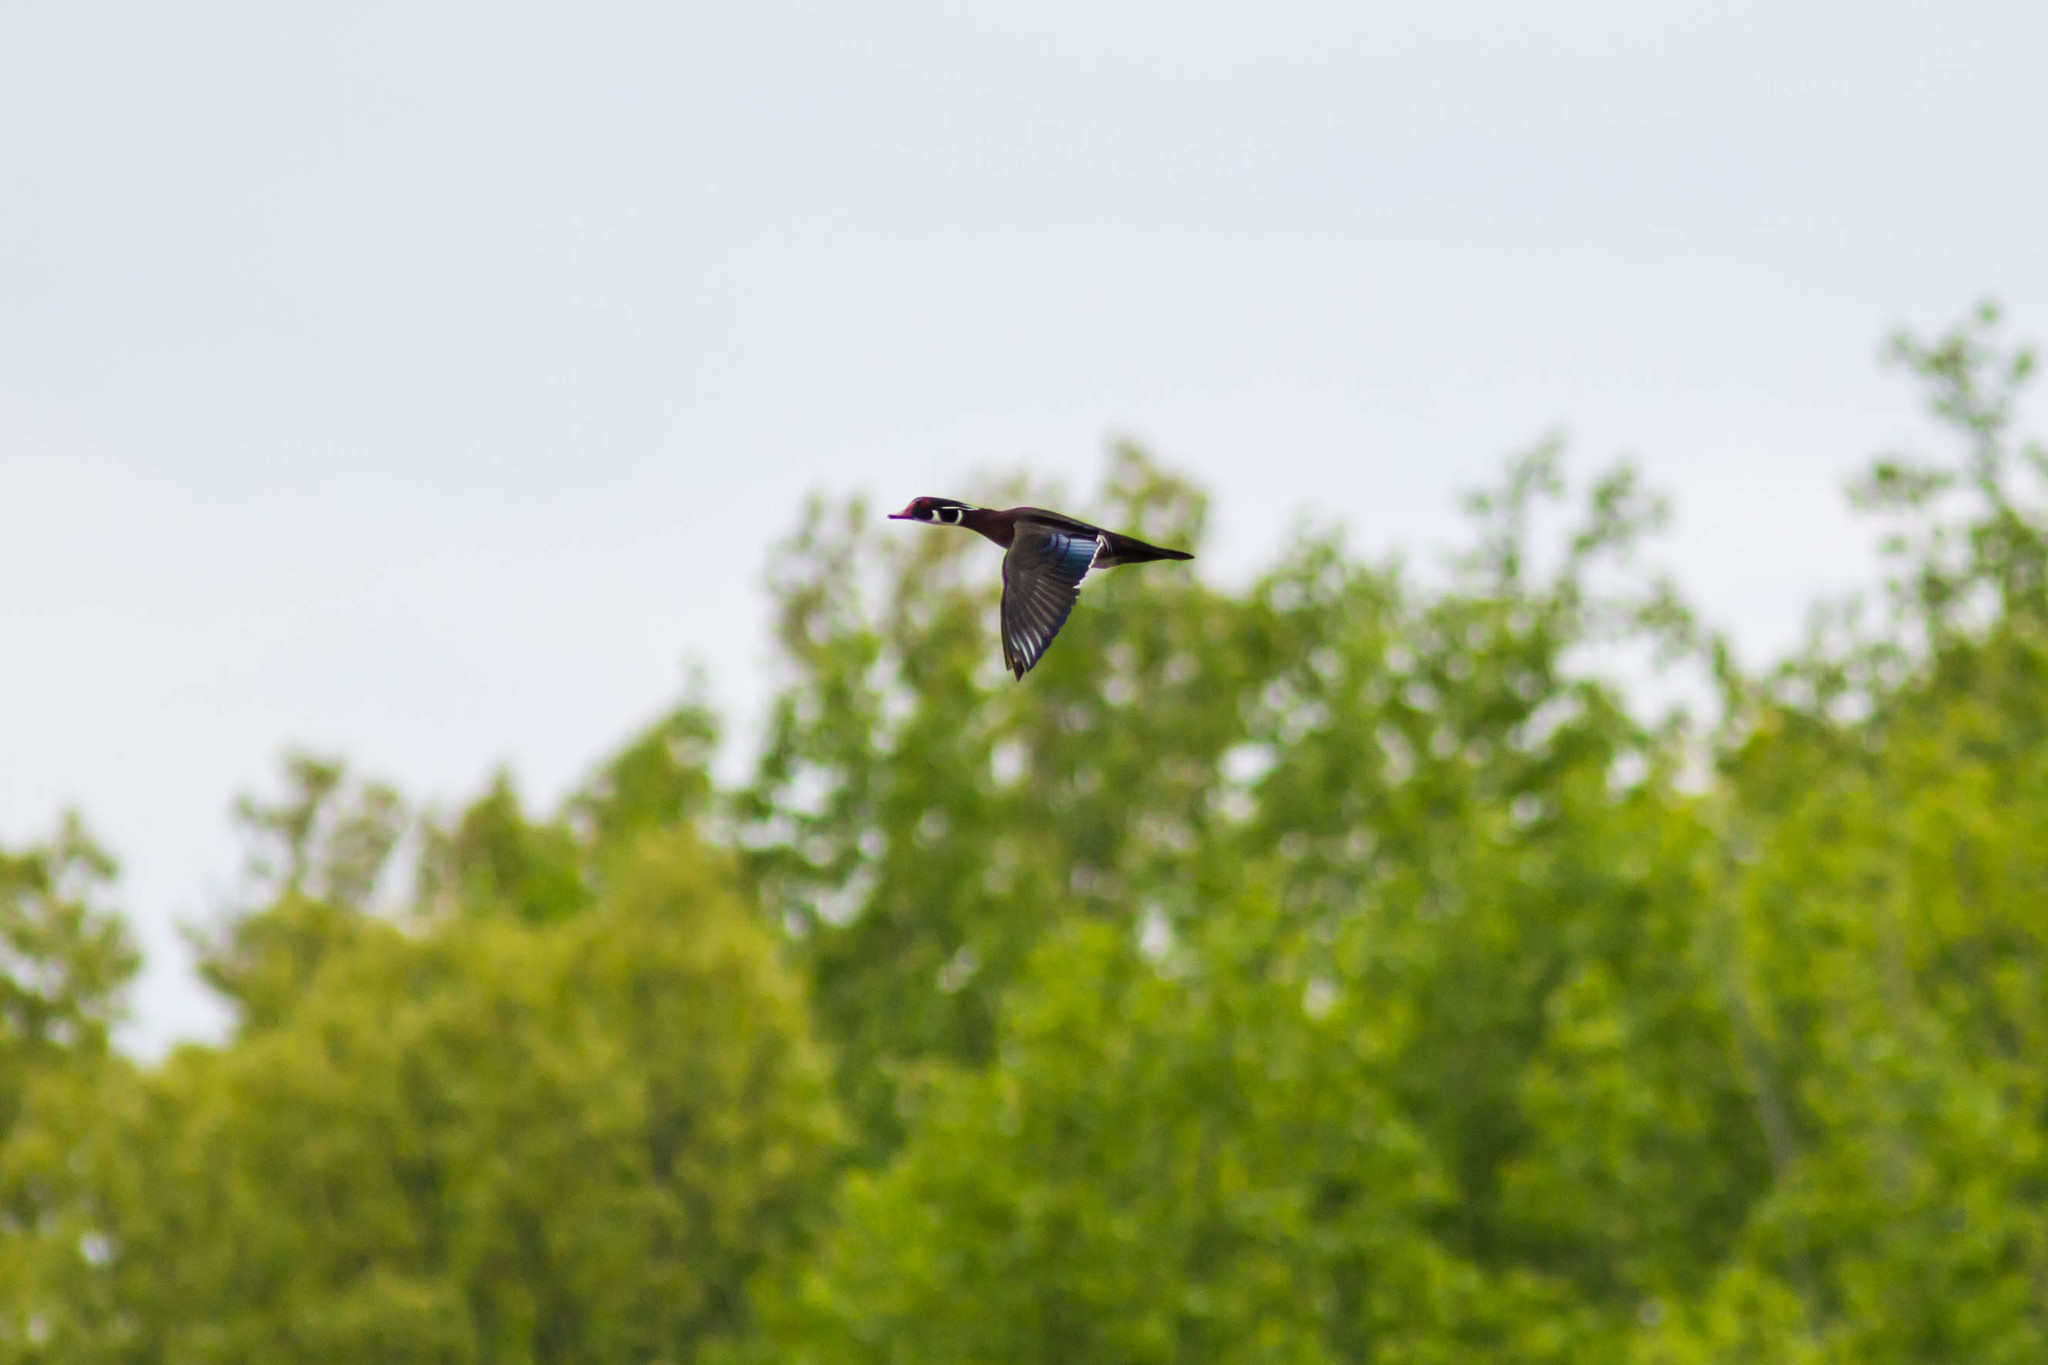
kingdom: Animalia
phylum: Chordata
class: Aves
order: Anseriformes
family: Anatidae
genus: Aix
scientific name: Aix sponsa
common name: Wood duck
